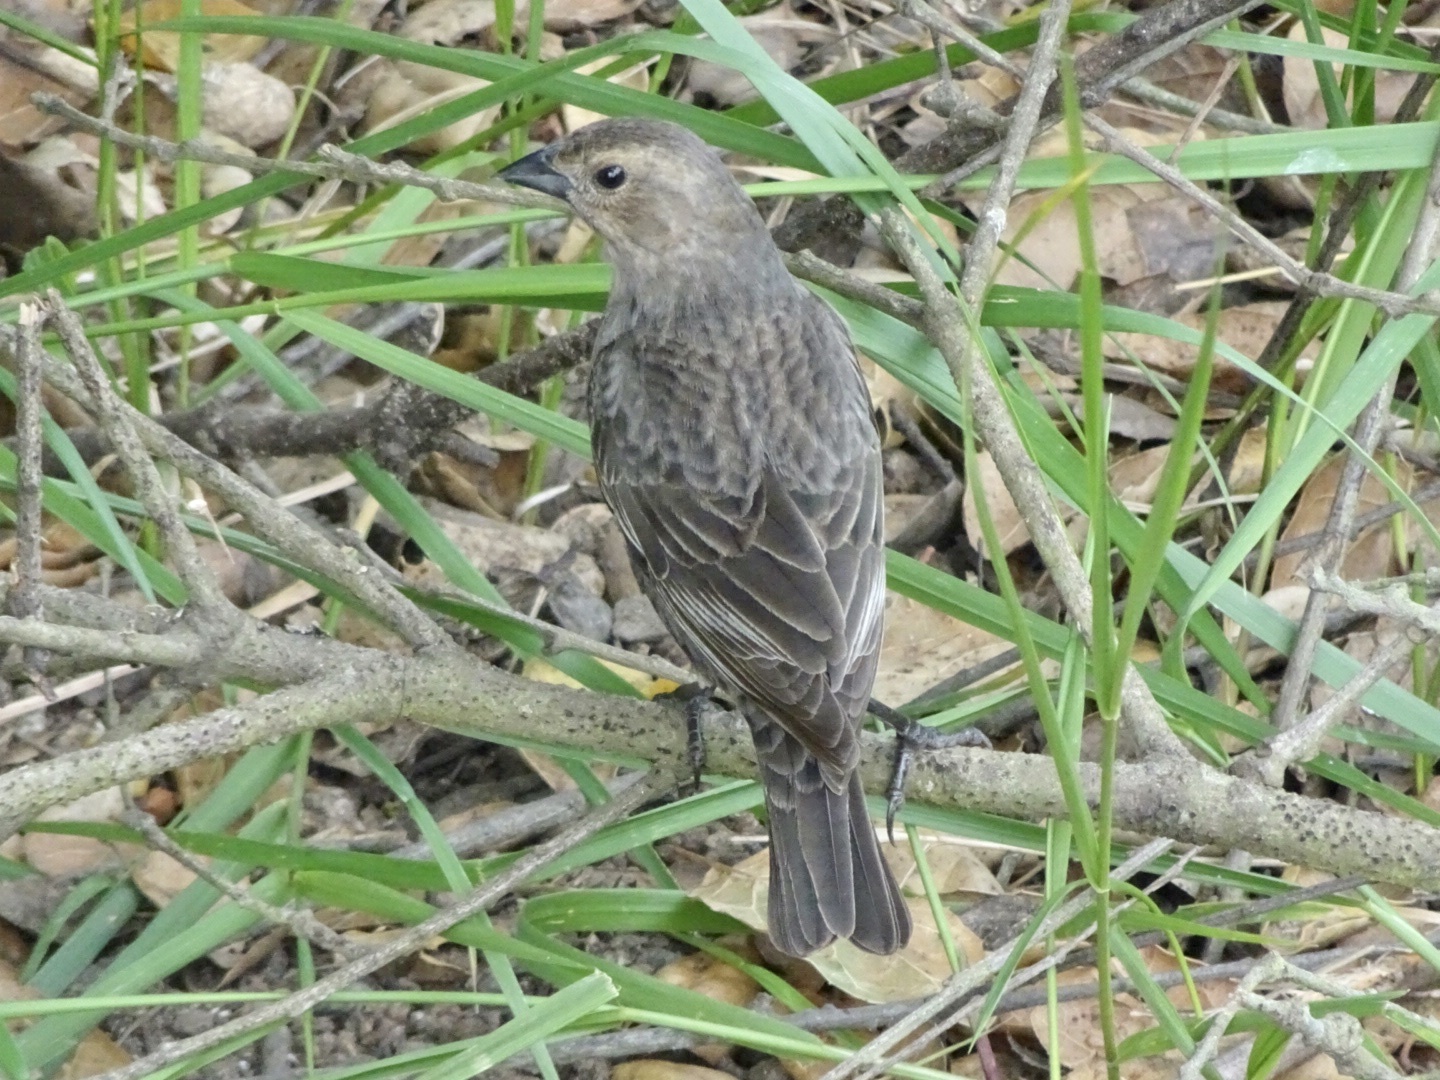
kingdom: Animalia
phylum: Chordata
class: Aves
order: Passeriformes
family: Icteridae
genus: Molothrus
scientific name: Molothrus ater
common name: Brown-headed cowbird
